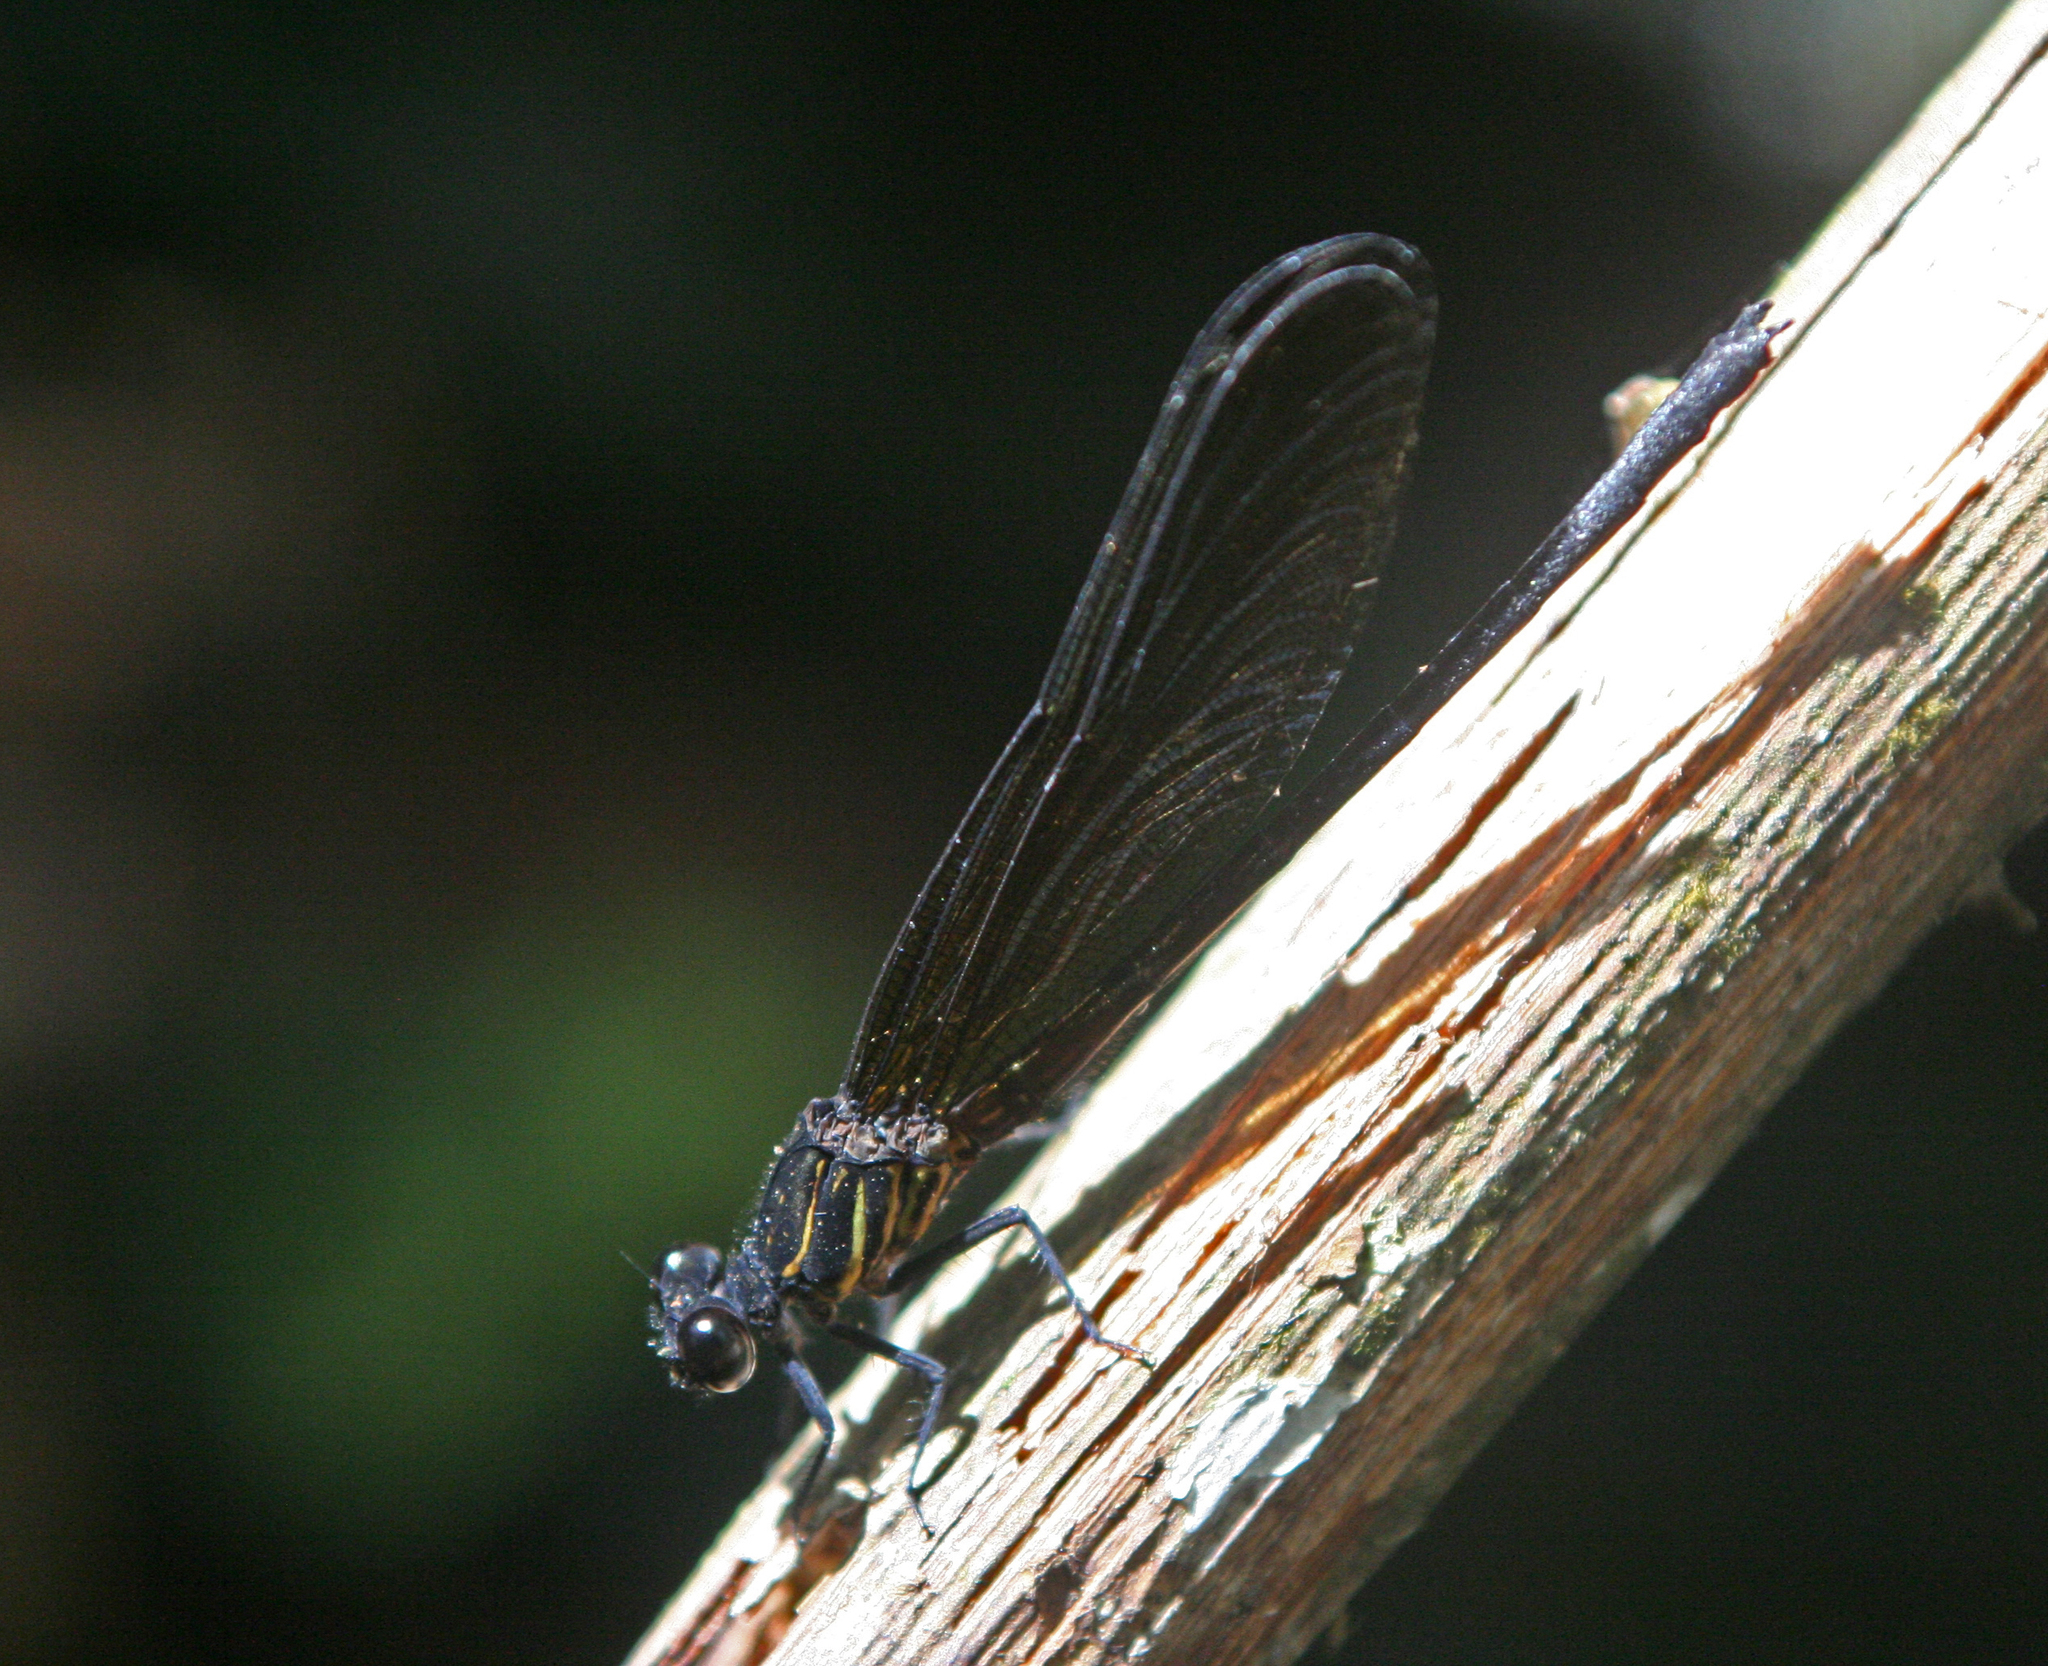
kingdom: Animalia
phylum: Arthropoda
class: Insecta
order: Odonata
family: Euphaeidae
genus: Euphaea
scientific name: Euphaea cyanopogon
